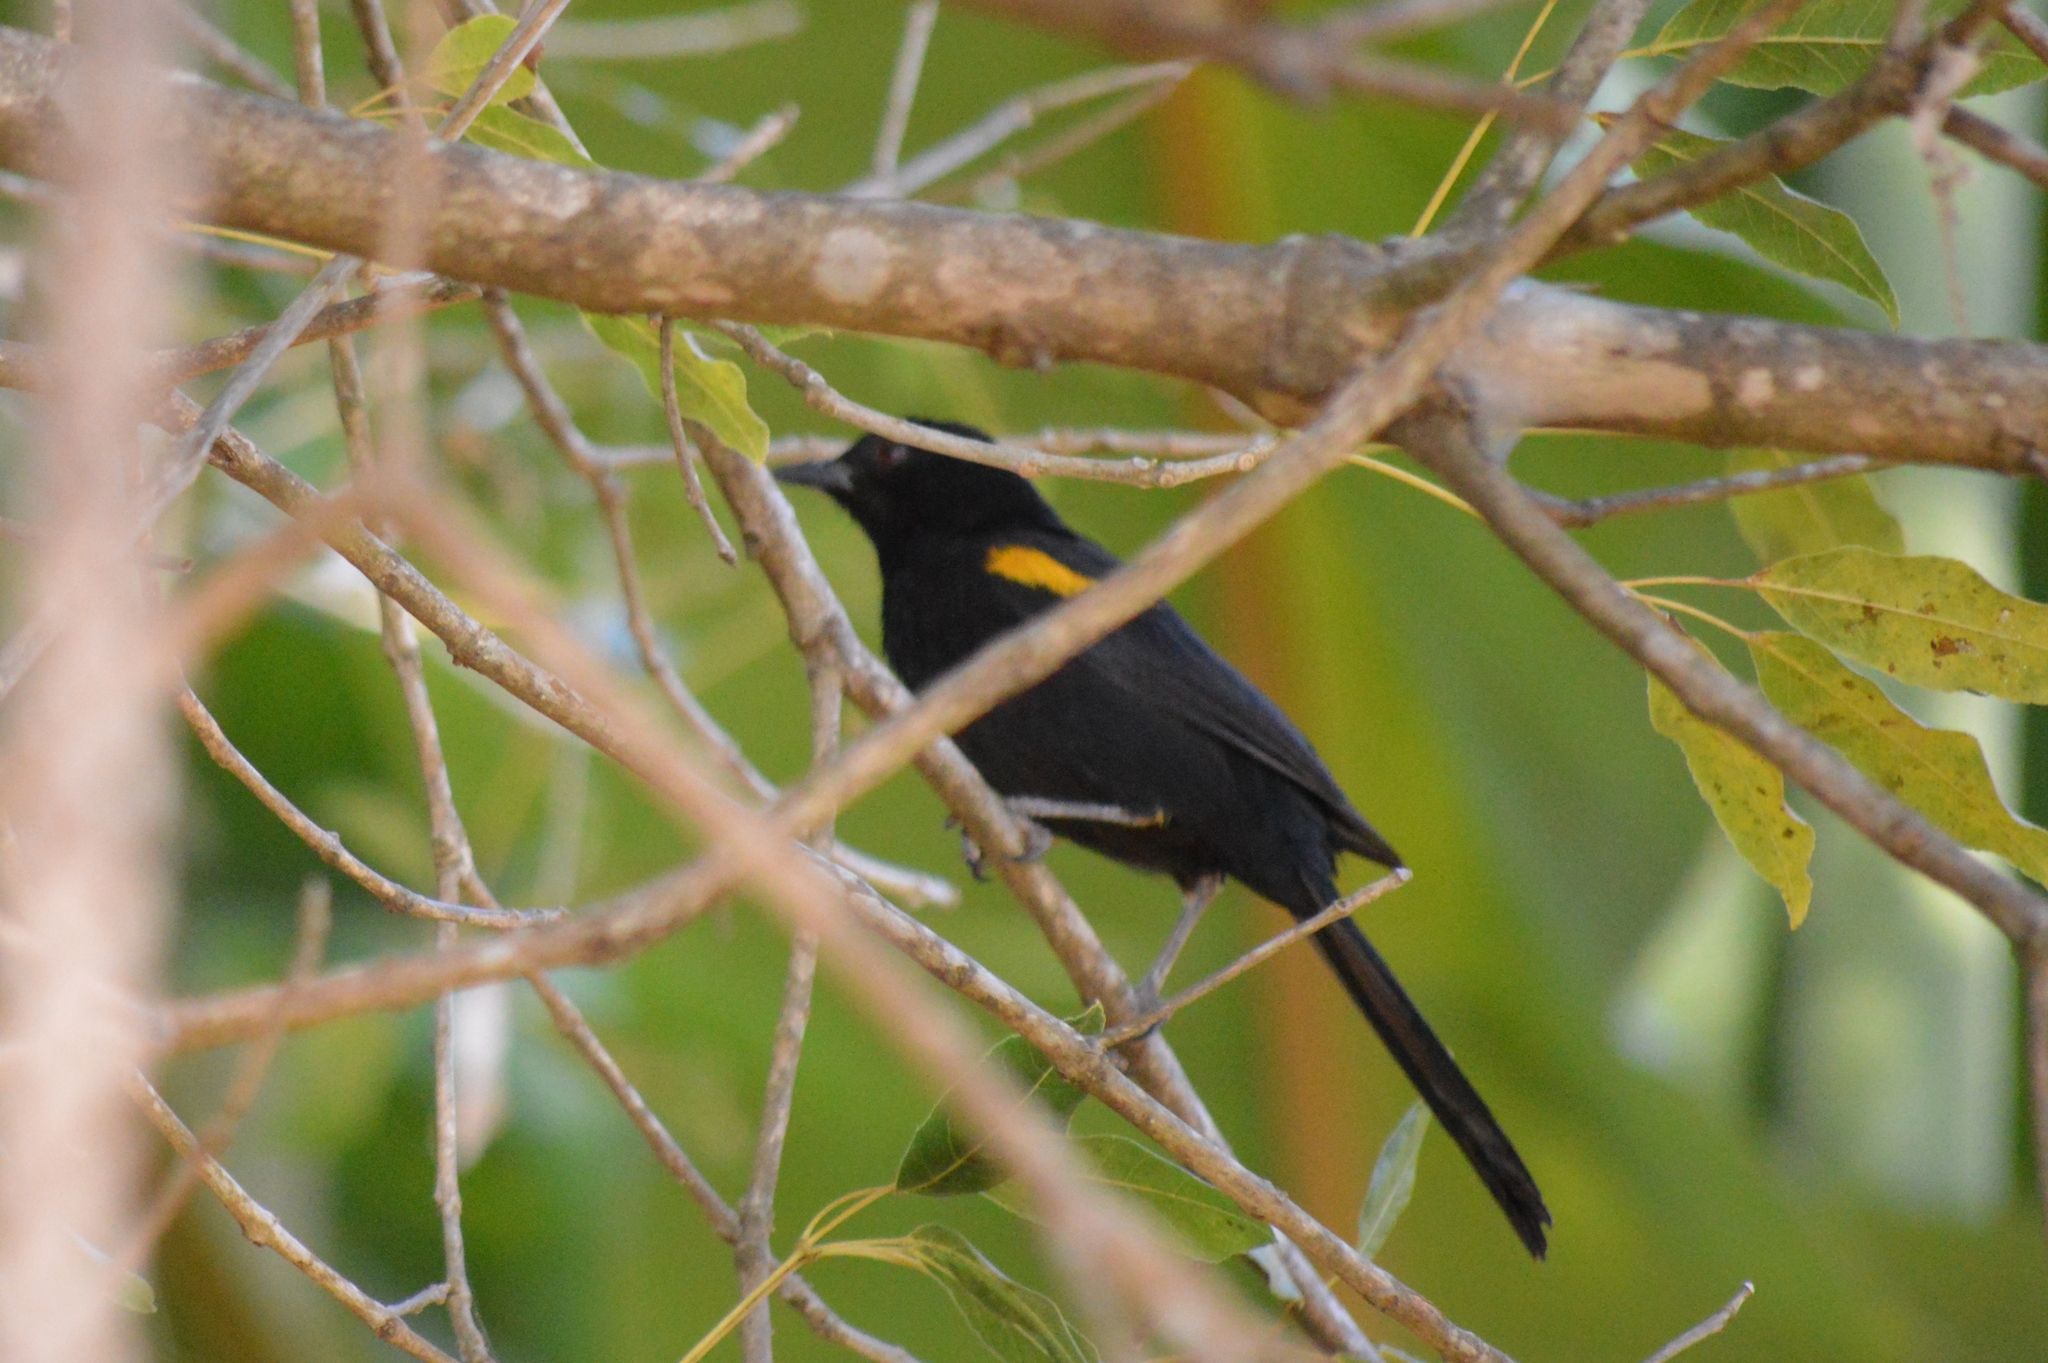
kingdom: Animalia
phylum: Chordata
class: Aves
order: Passeriformes
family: Icteridae
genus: Icterus
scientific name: Icterus cayanensis
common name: Epaulet oriole
